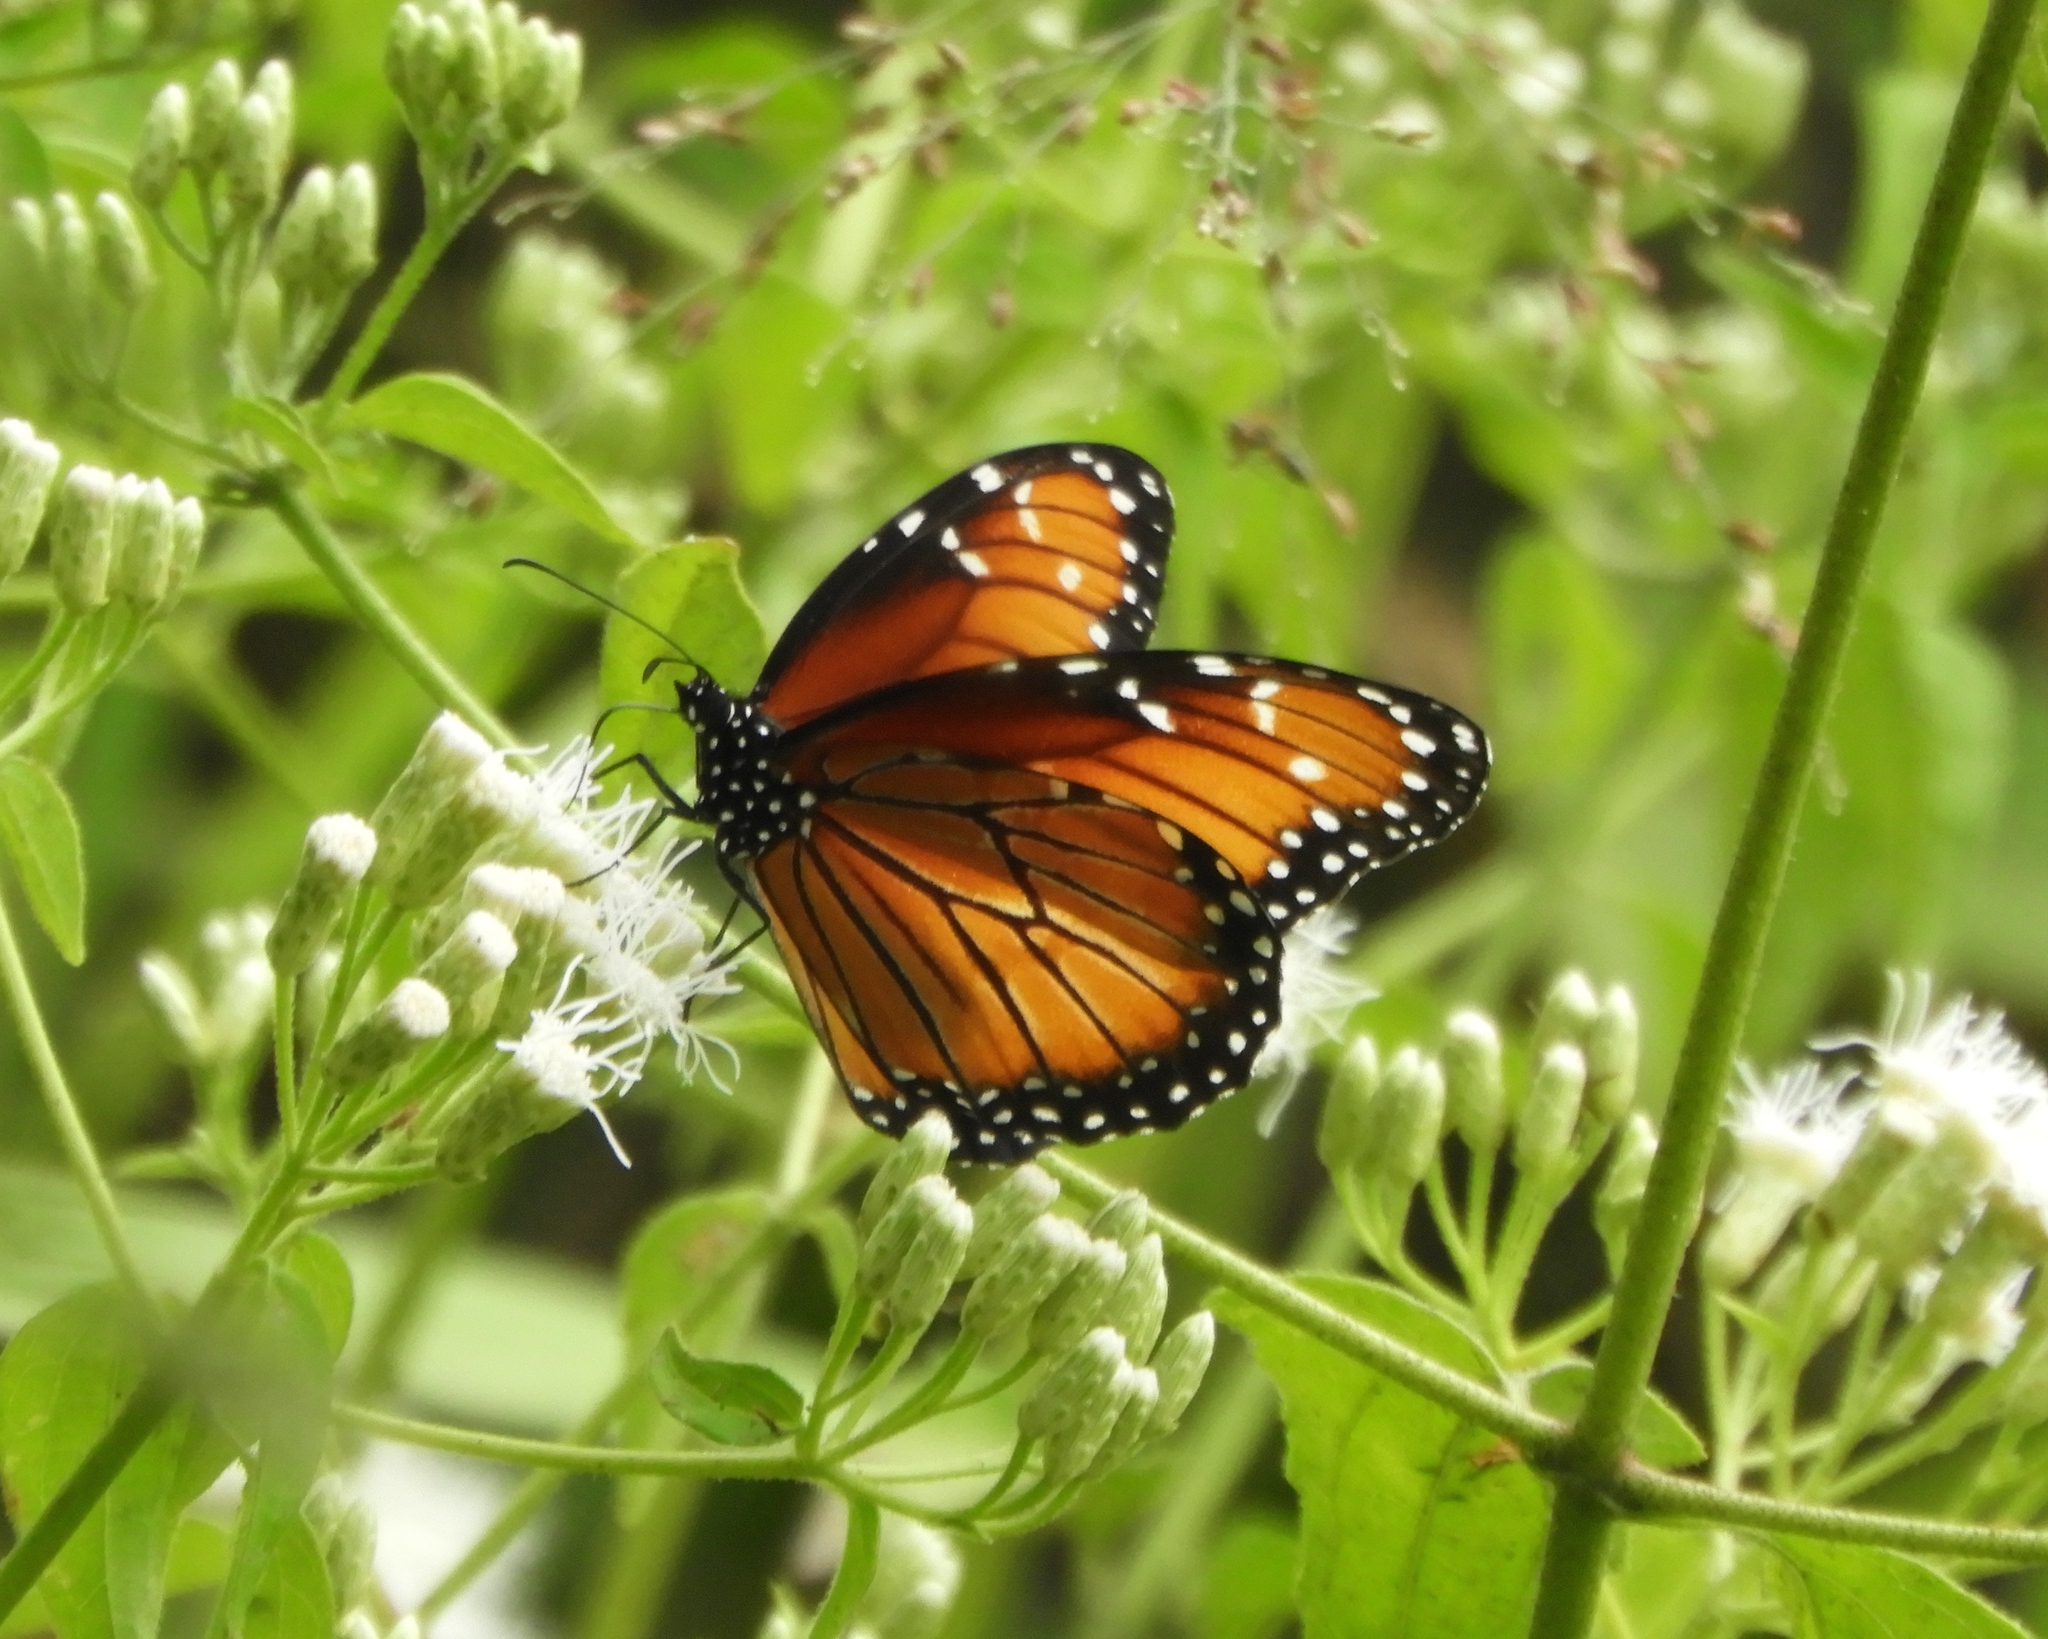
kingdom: Animalia
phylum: Arthropoda
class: Insecta
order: Lepidoptera
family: Nymphalidae
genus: Danaus
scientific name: Danaus eresimus
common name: Soldier
